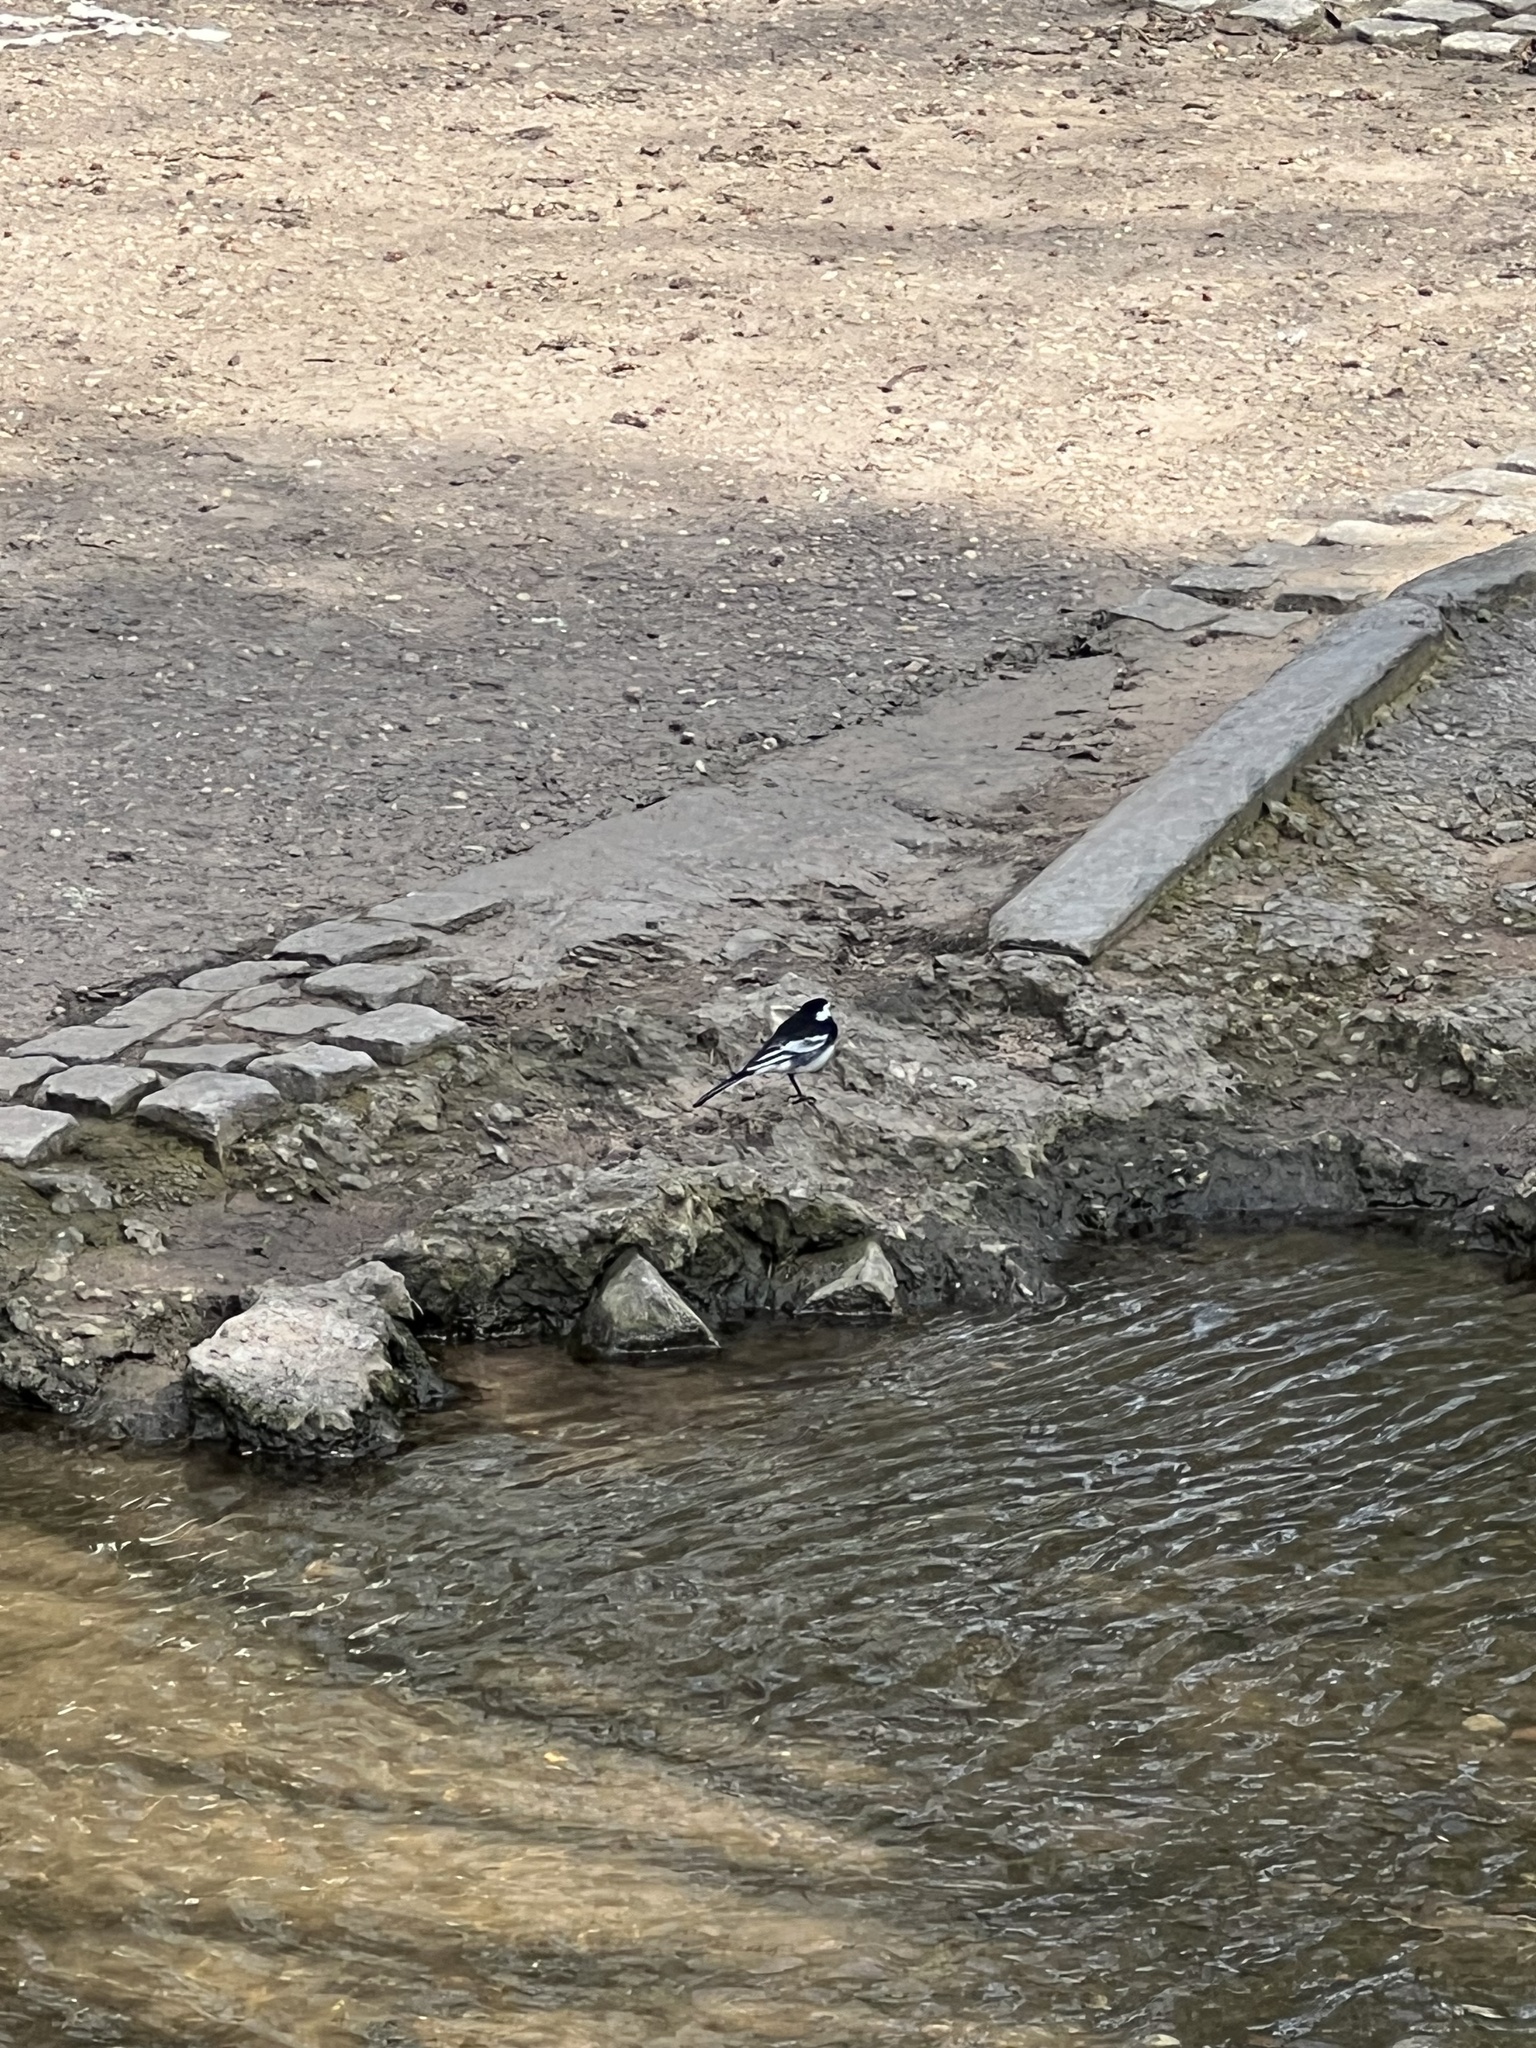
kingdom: Animalia
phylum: Chordata
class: Aves
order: Passeriformes
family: Motacillidae
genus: Motacilla
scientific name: Motacilla alba
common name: White wagtail
